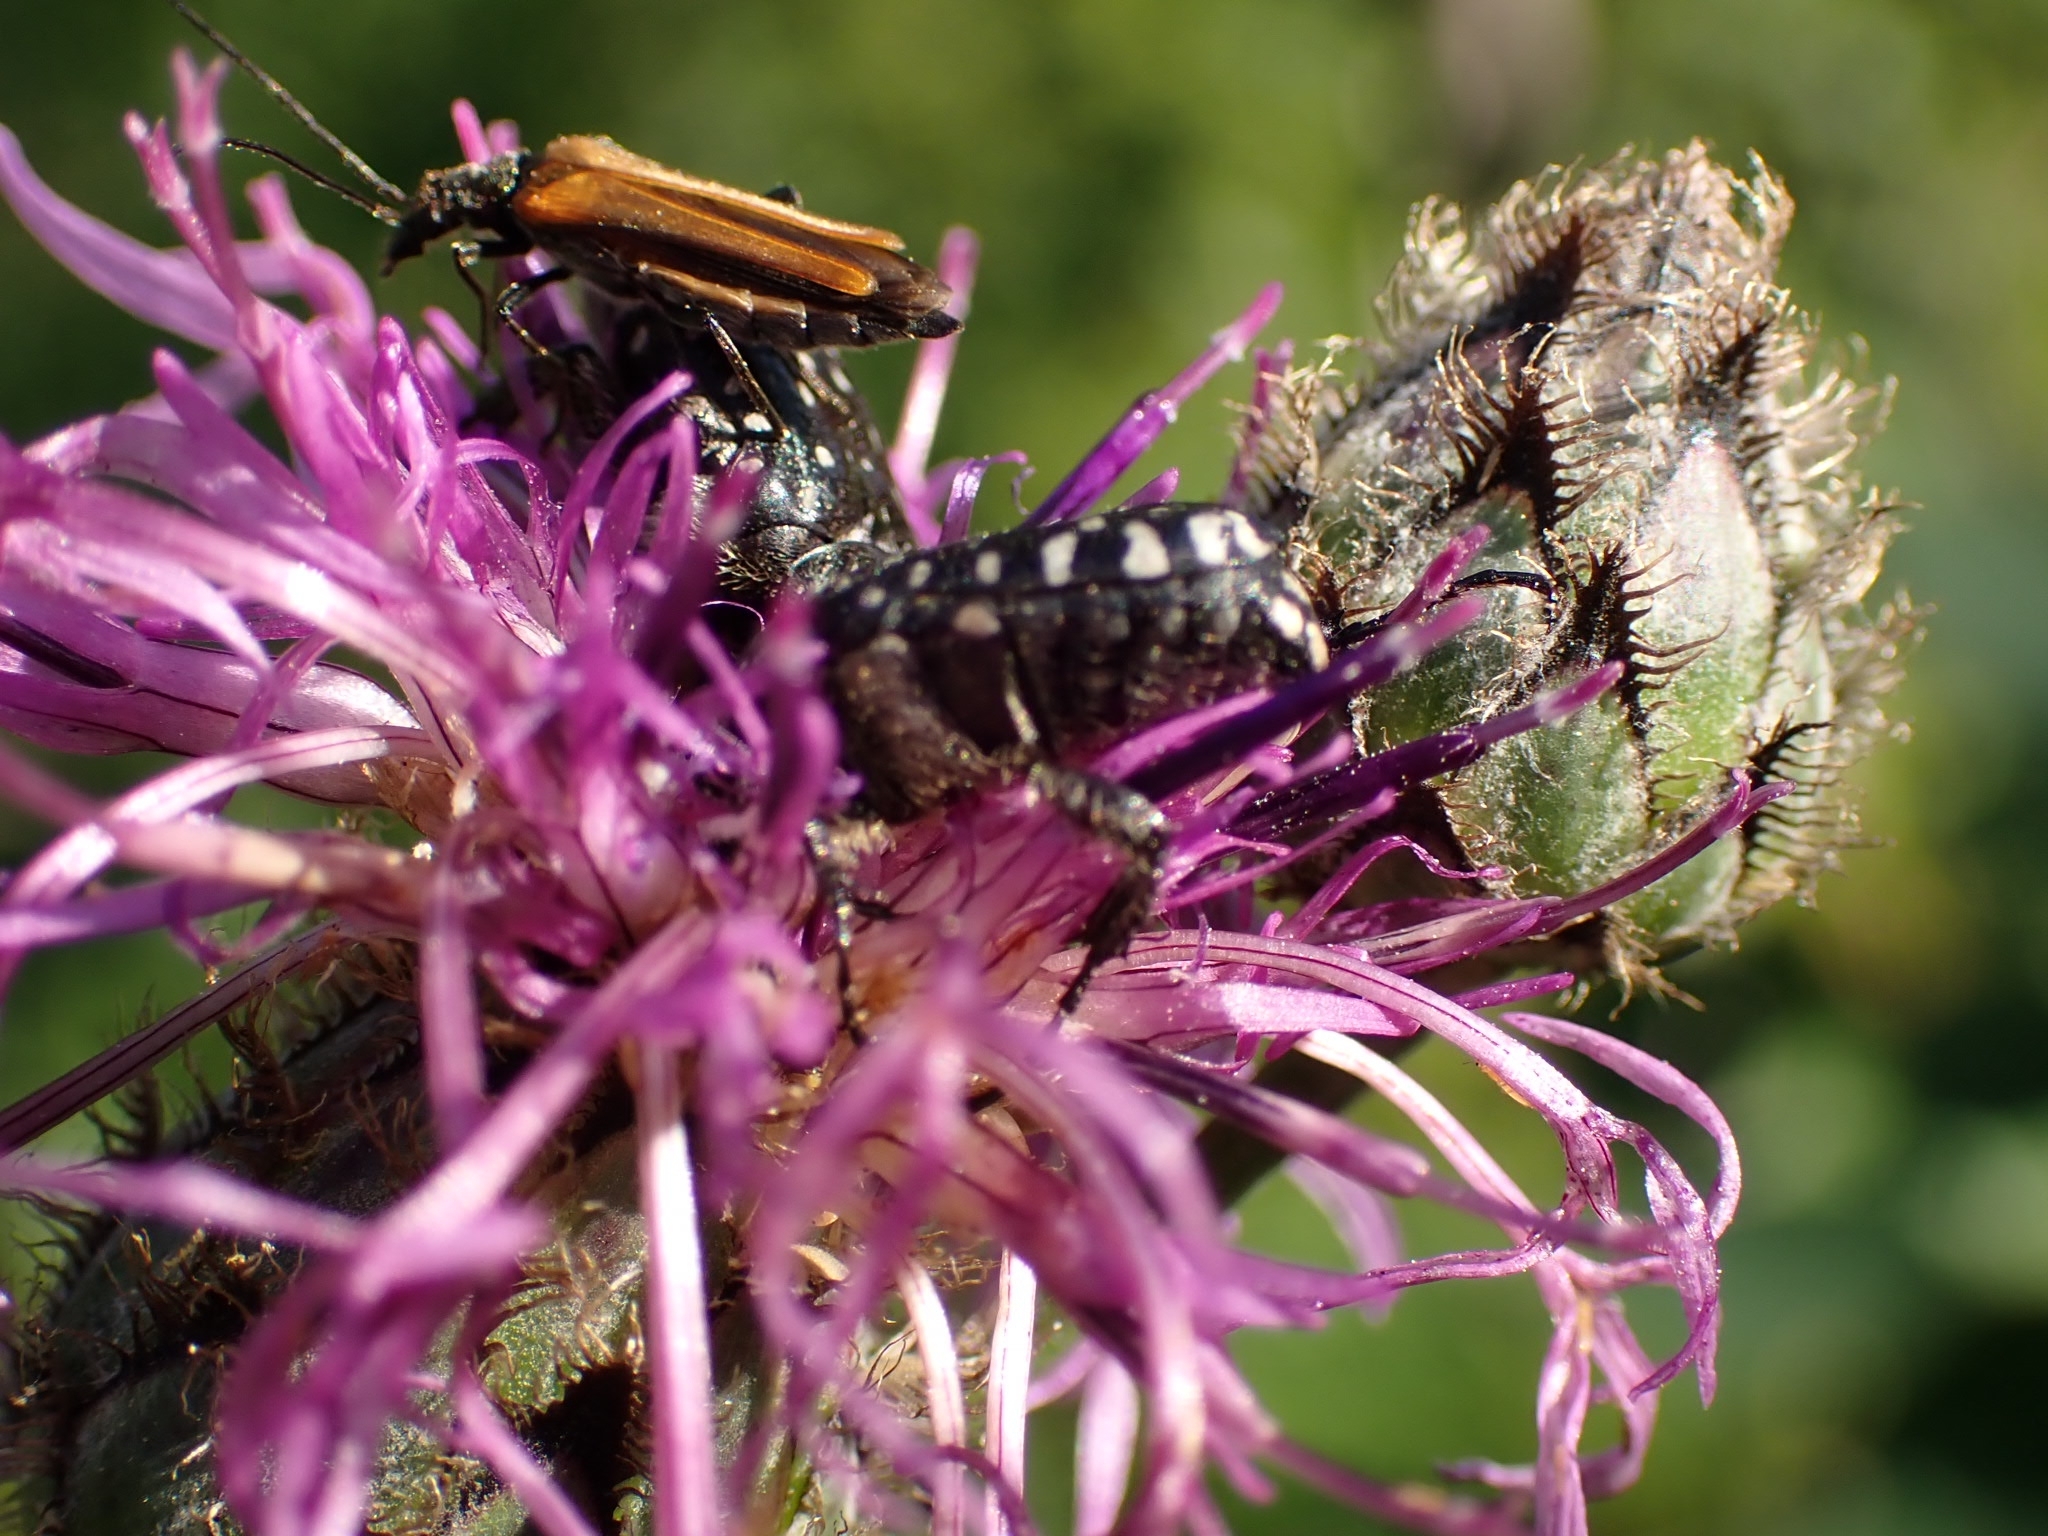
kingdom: Animalia
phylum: Arthropoda
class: Insecta
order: Coleoptera
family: Scarabaeidae
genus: Oxythyrea
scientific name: Oxythyrea funesta
